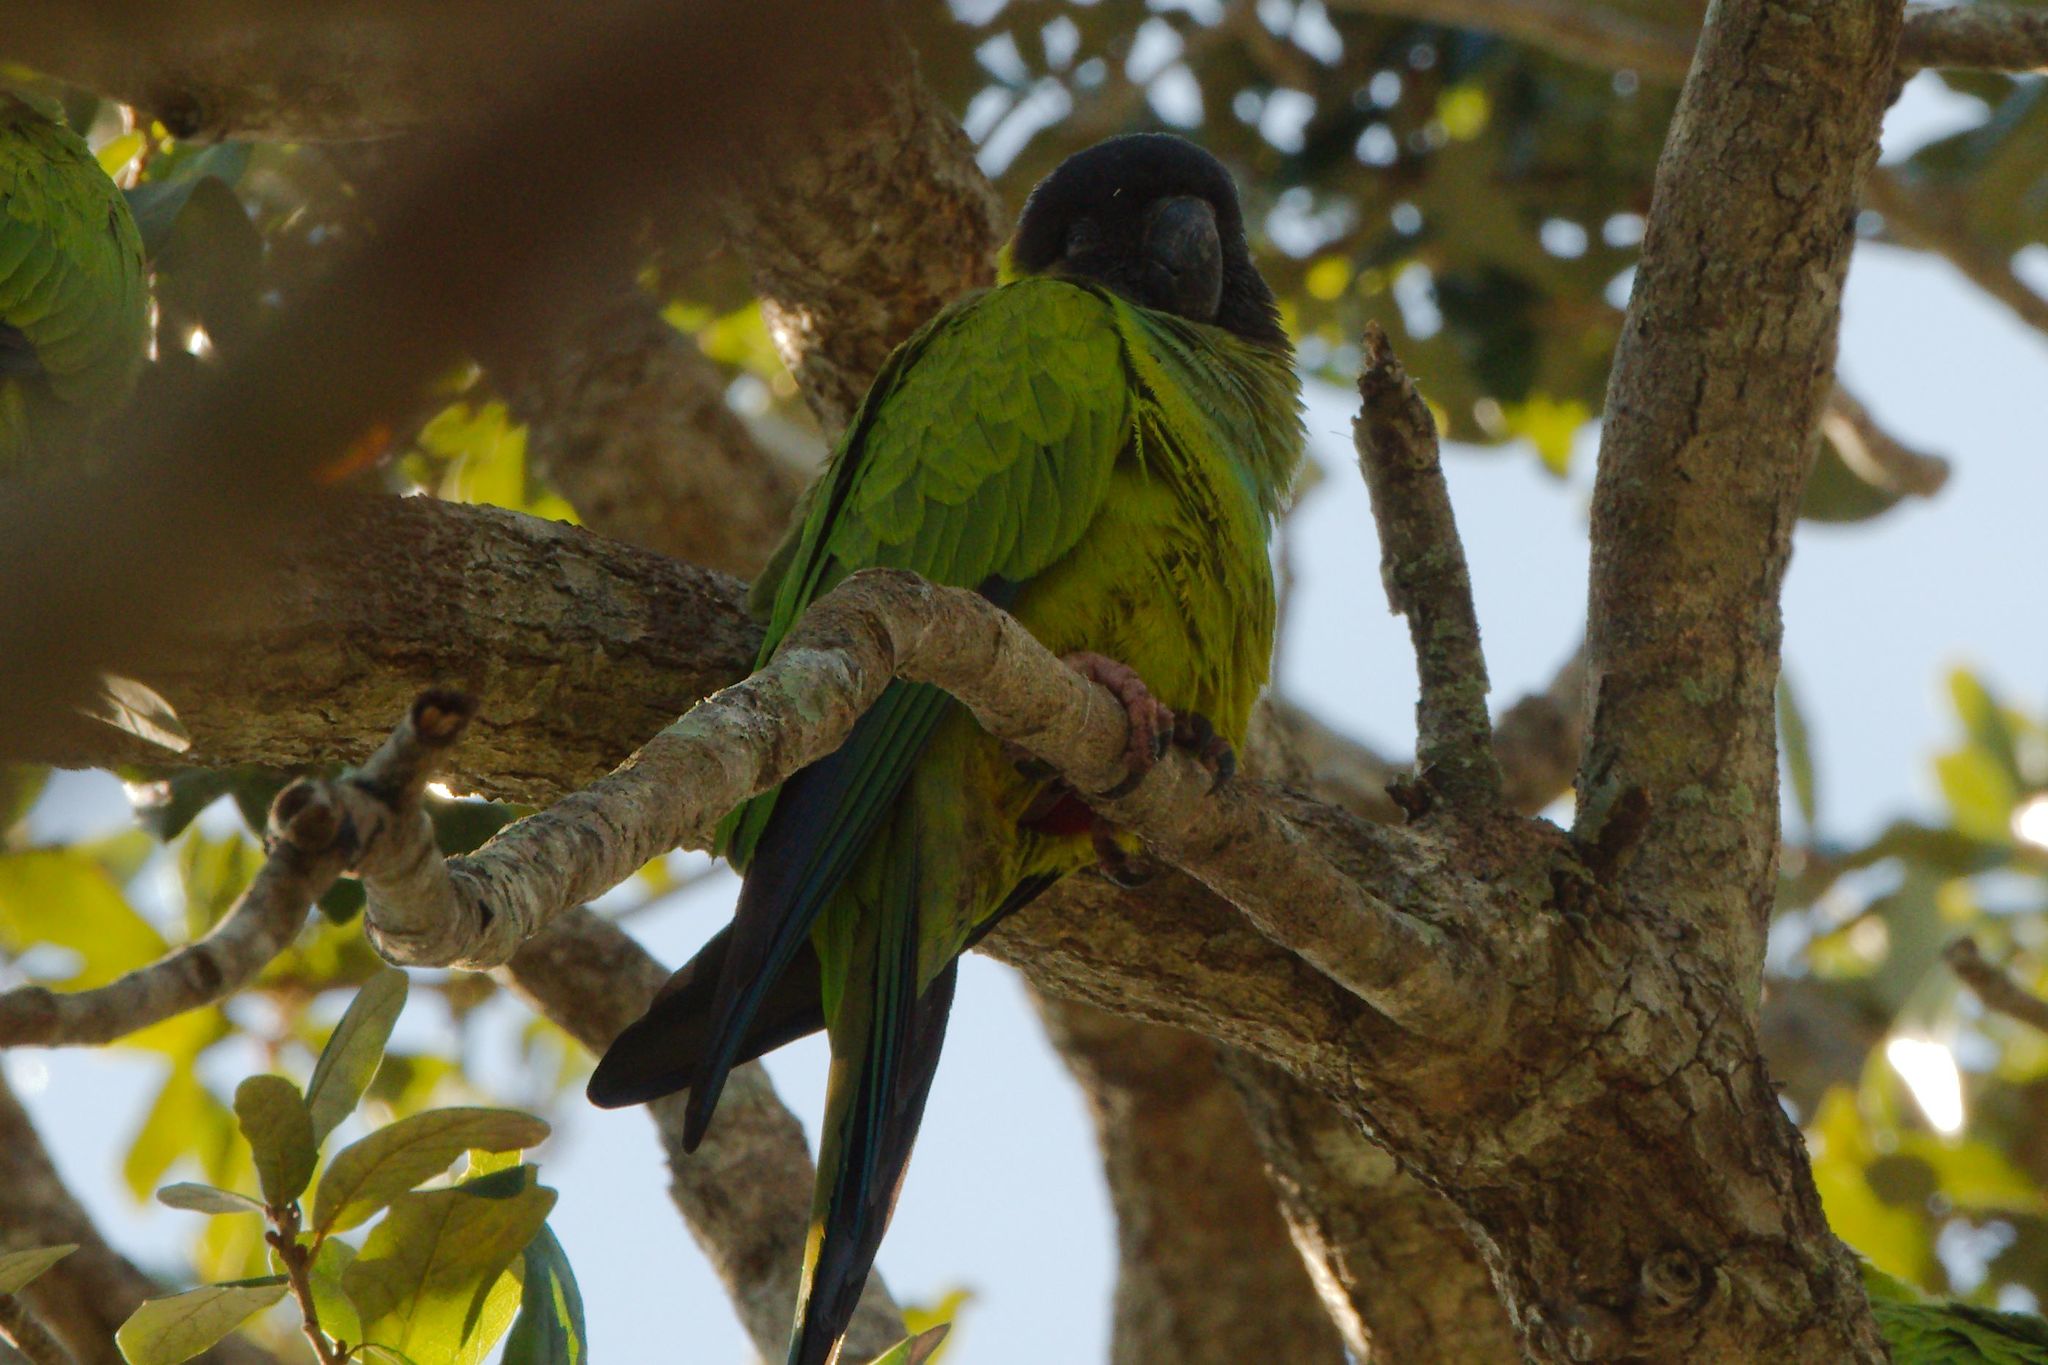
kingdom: Animalia
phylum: Chordata
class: Aves
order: Psittaciformes
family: Psittacidae
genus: Nandayus
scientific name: Nandayus nenday
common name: Nanday parakeet
